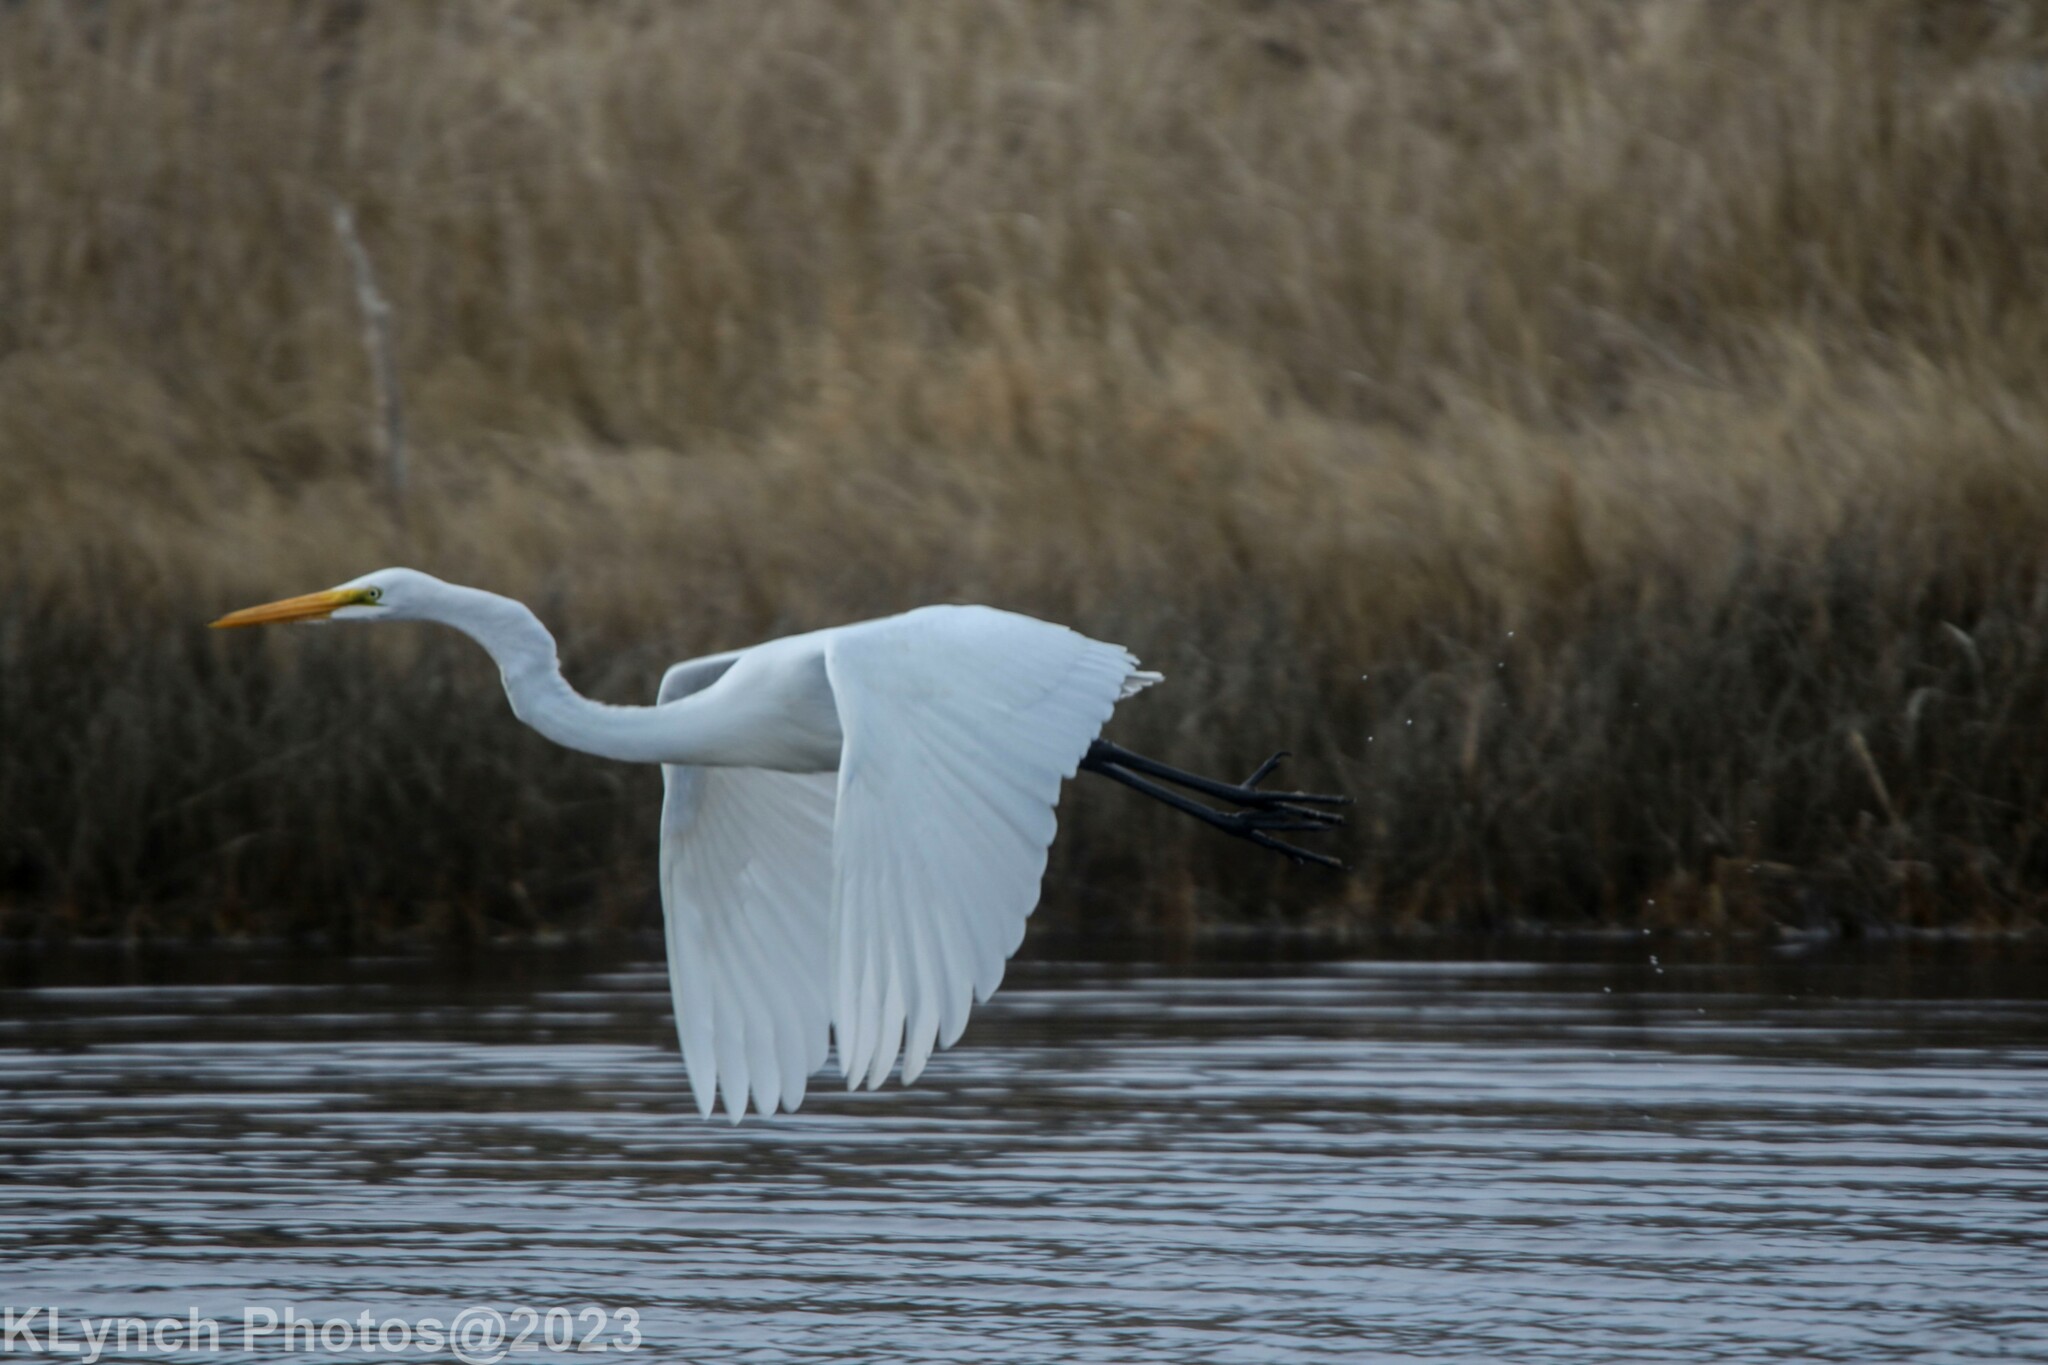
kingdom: Animalia
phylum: Chordata
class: Aves
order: Pelecaniformes
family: Ardeidae
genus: Ardea
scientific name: Ardea alba
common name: Great egret
